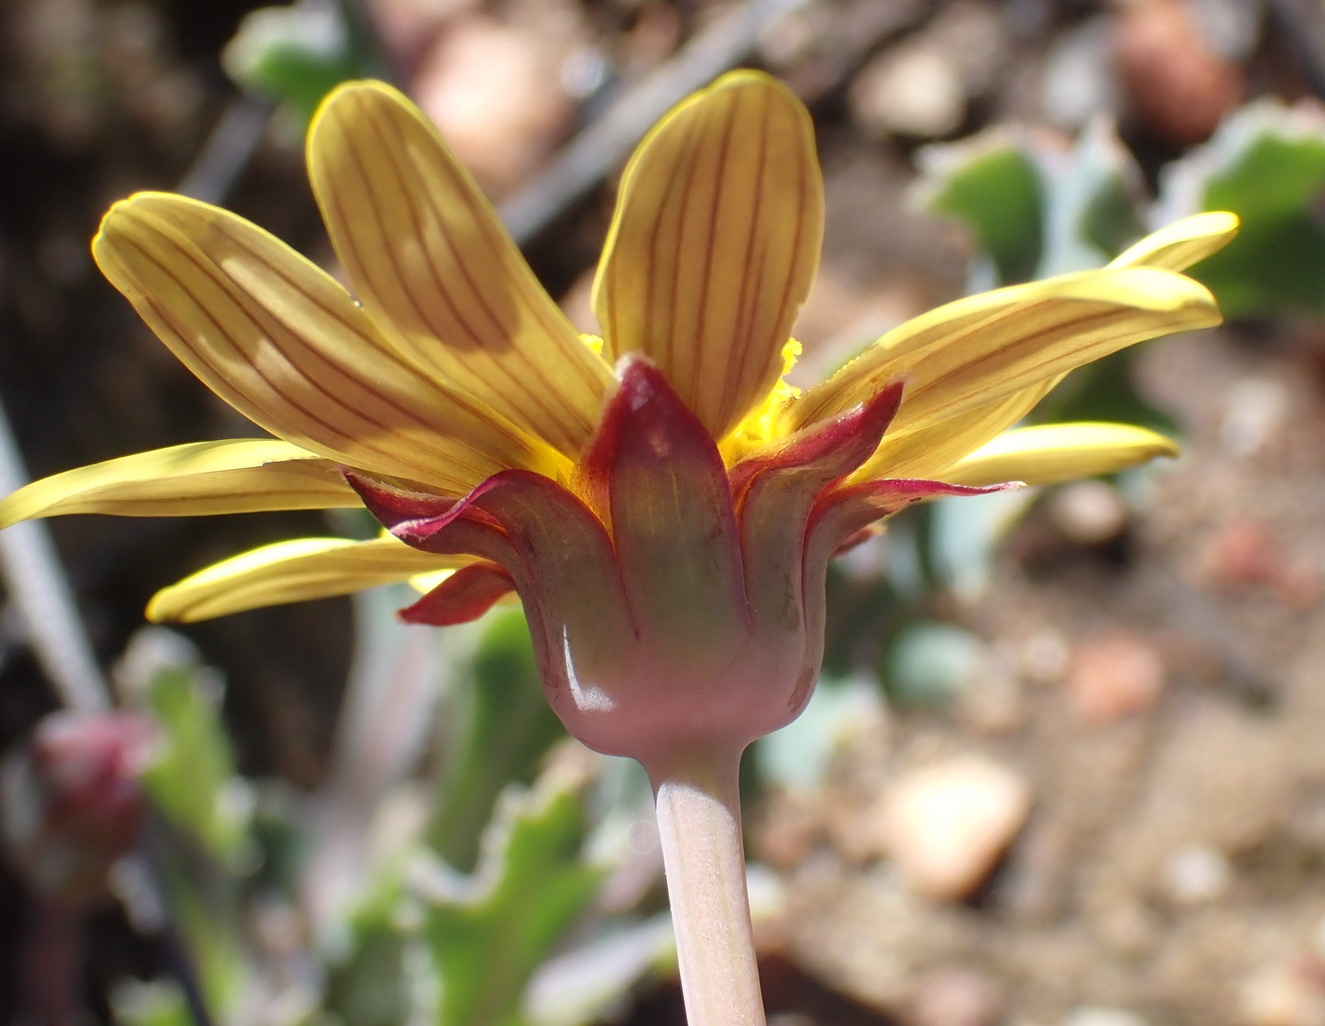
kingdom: Plantae
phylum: Tracheophyta
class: Magnoliopsida
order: Asterales
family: Asteraceae
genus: Othonna
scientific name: Othonna auriculifolia
